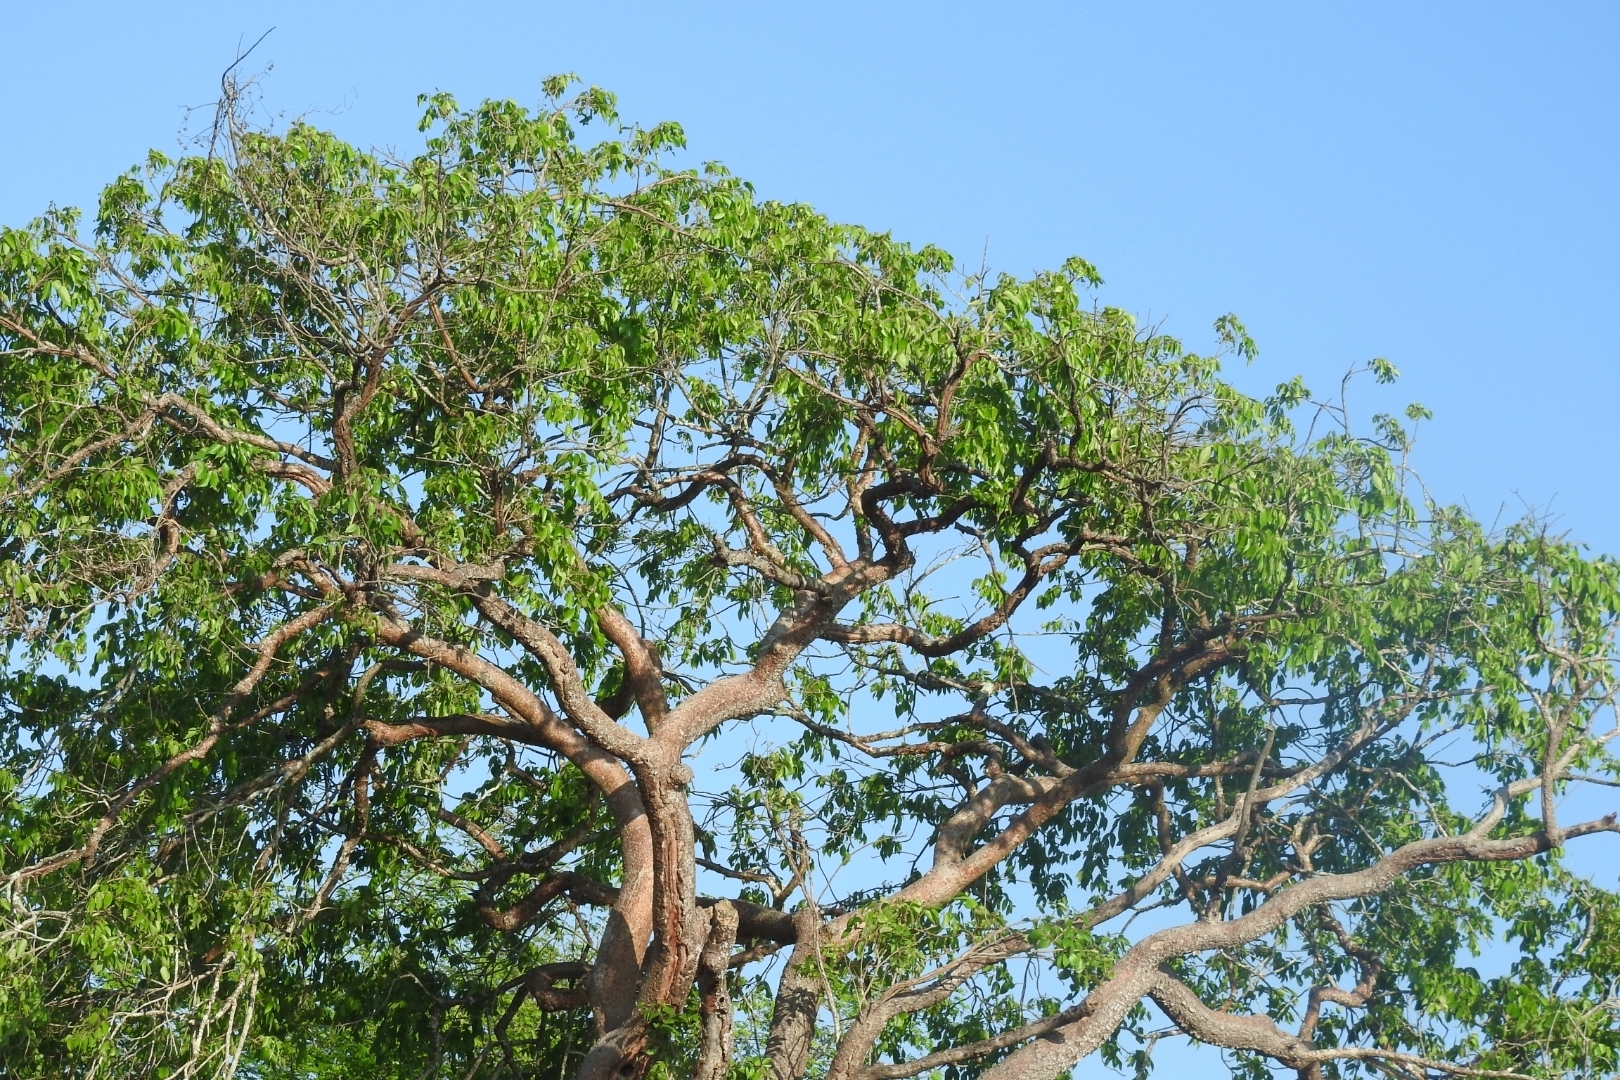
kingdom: Plantae
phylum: Tracheophyta
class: Magnoliopsida
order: Sapindales
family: Burseraceae
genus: Bursera
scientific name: Bursera simaruba
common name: Turpentine tree
